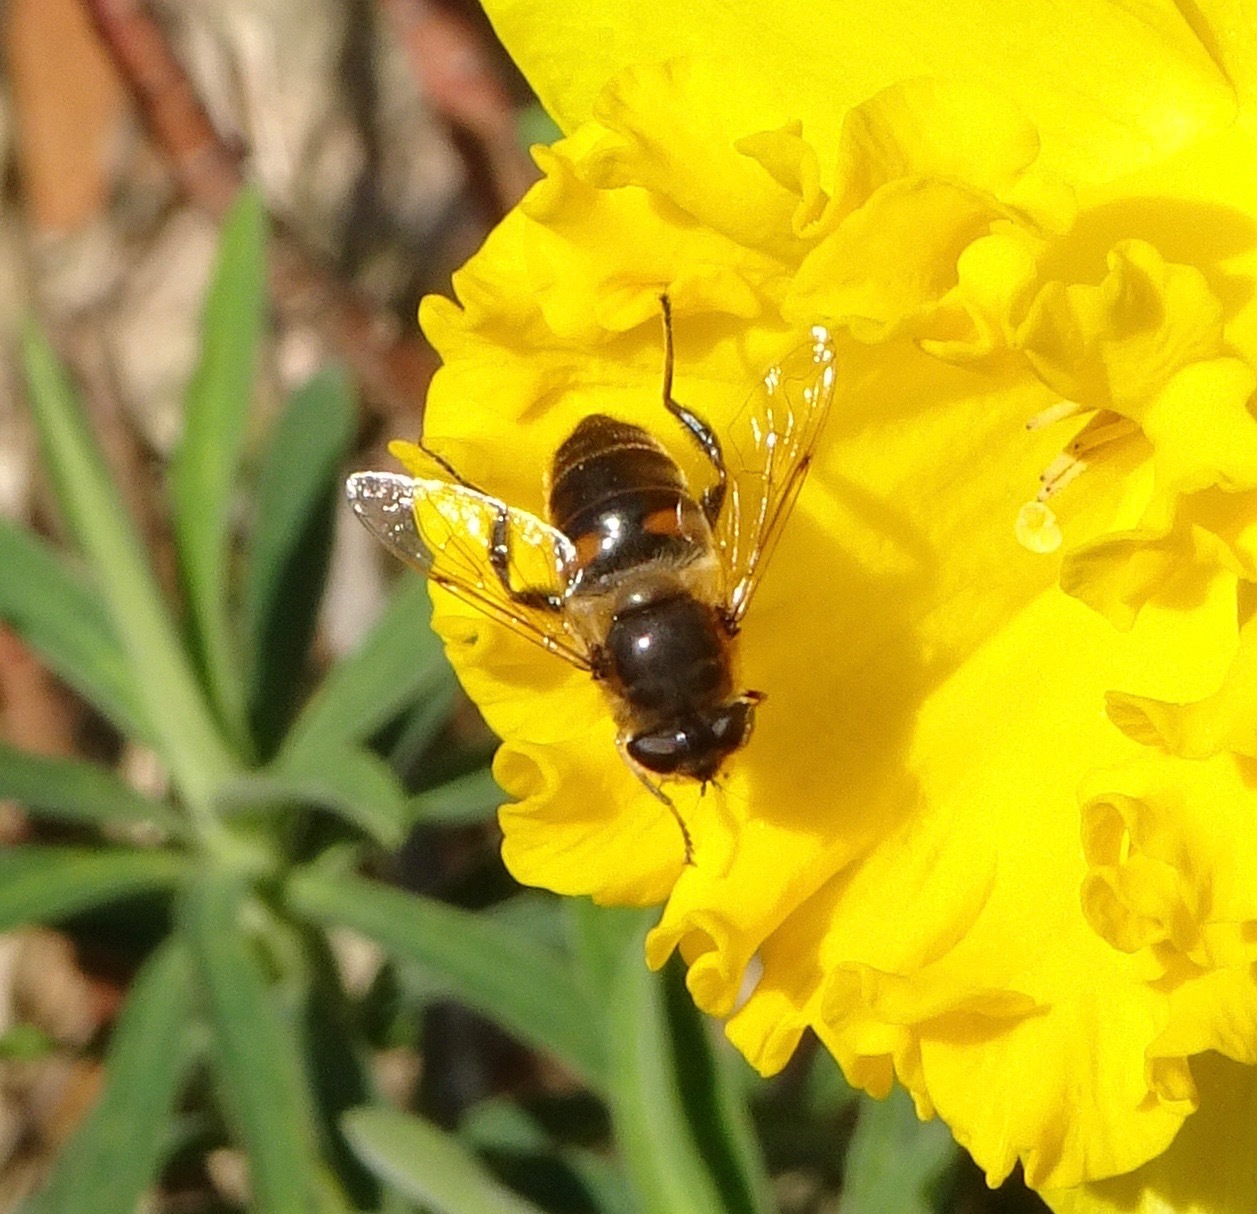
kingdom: Animalia
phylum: Arthropoda
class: Insecta
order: Diptera
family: Syrphidae
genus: Eristalis
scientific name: Eristalis tenax
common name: Drone fly
